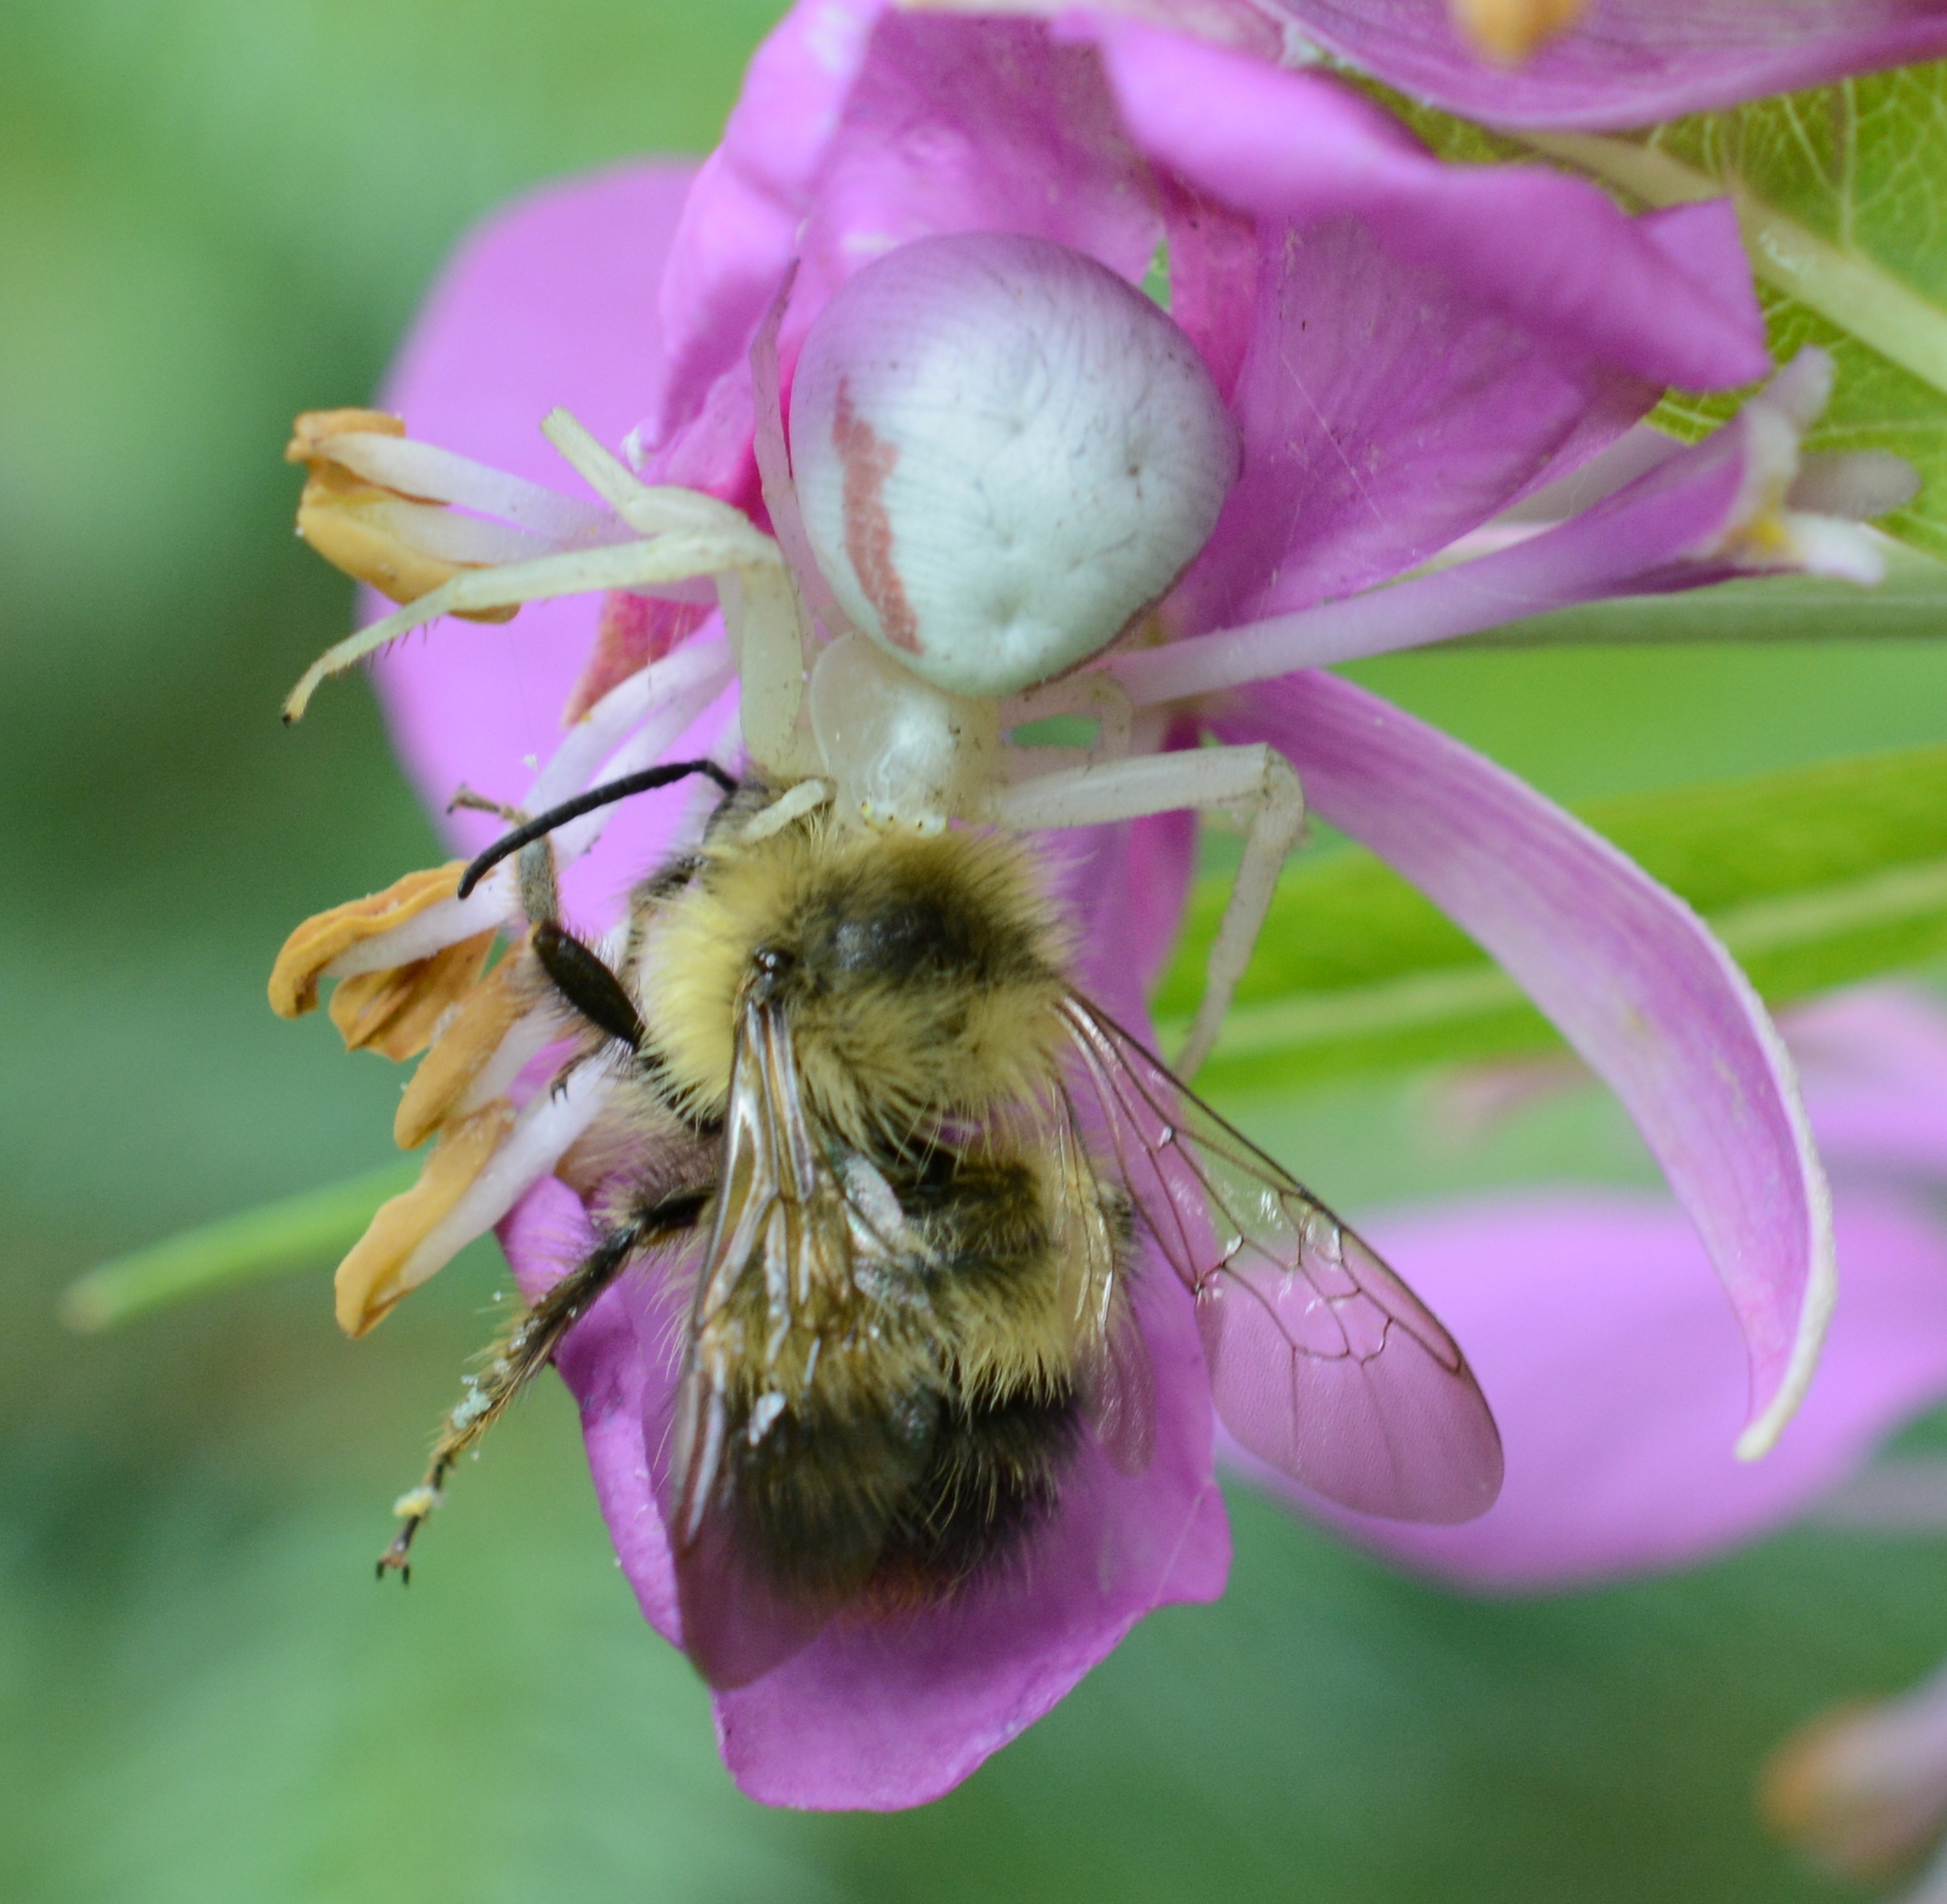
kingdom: Animalia
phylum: Arthropoda
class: Arachnida
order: Araneae
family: Thomisidae
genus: Misumena
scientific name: Misumena vatia
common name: Goldenrod crab spider
